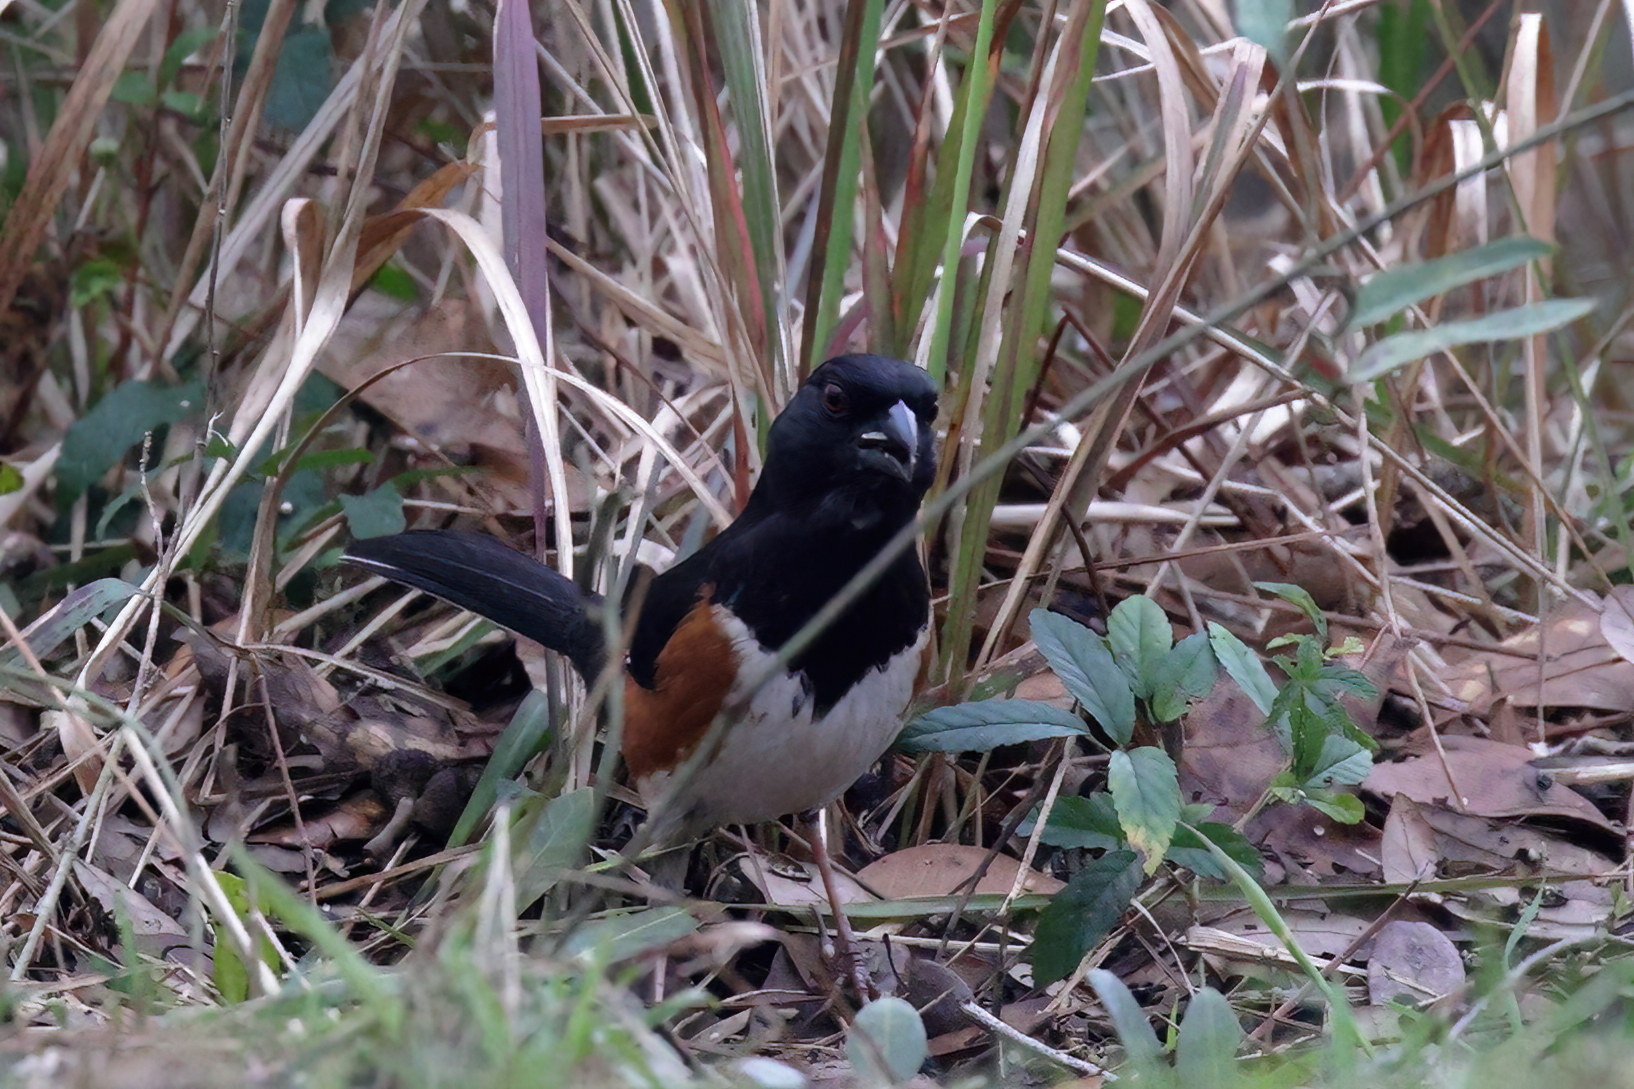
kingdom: Animalia
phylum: Chordata
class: Aves
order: Passeriformes
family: Passerellidae
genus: Pipilo
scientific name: Pipilo erythrophthalmus
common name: Eastern towhee
